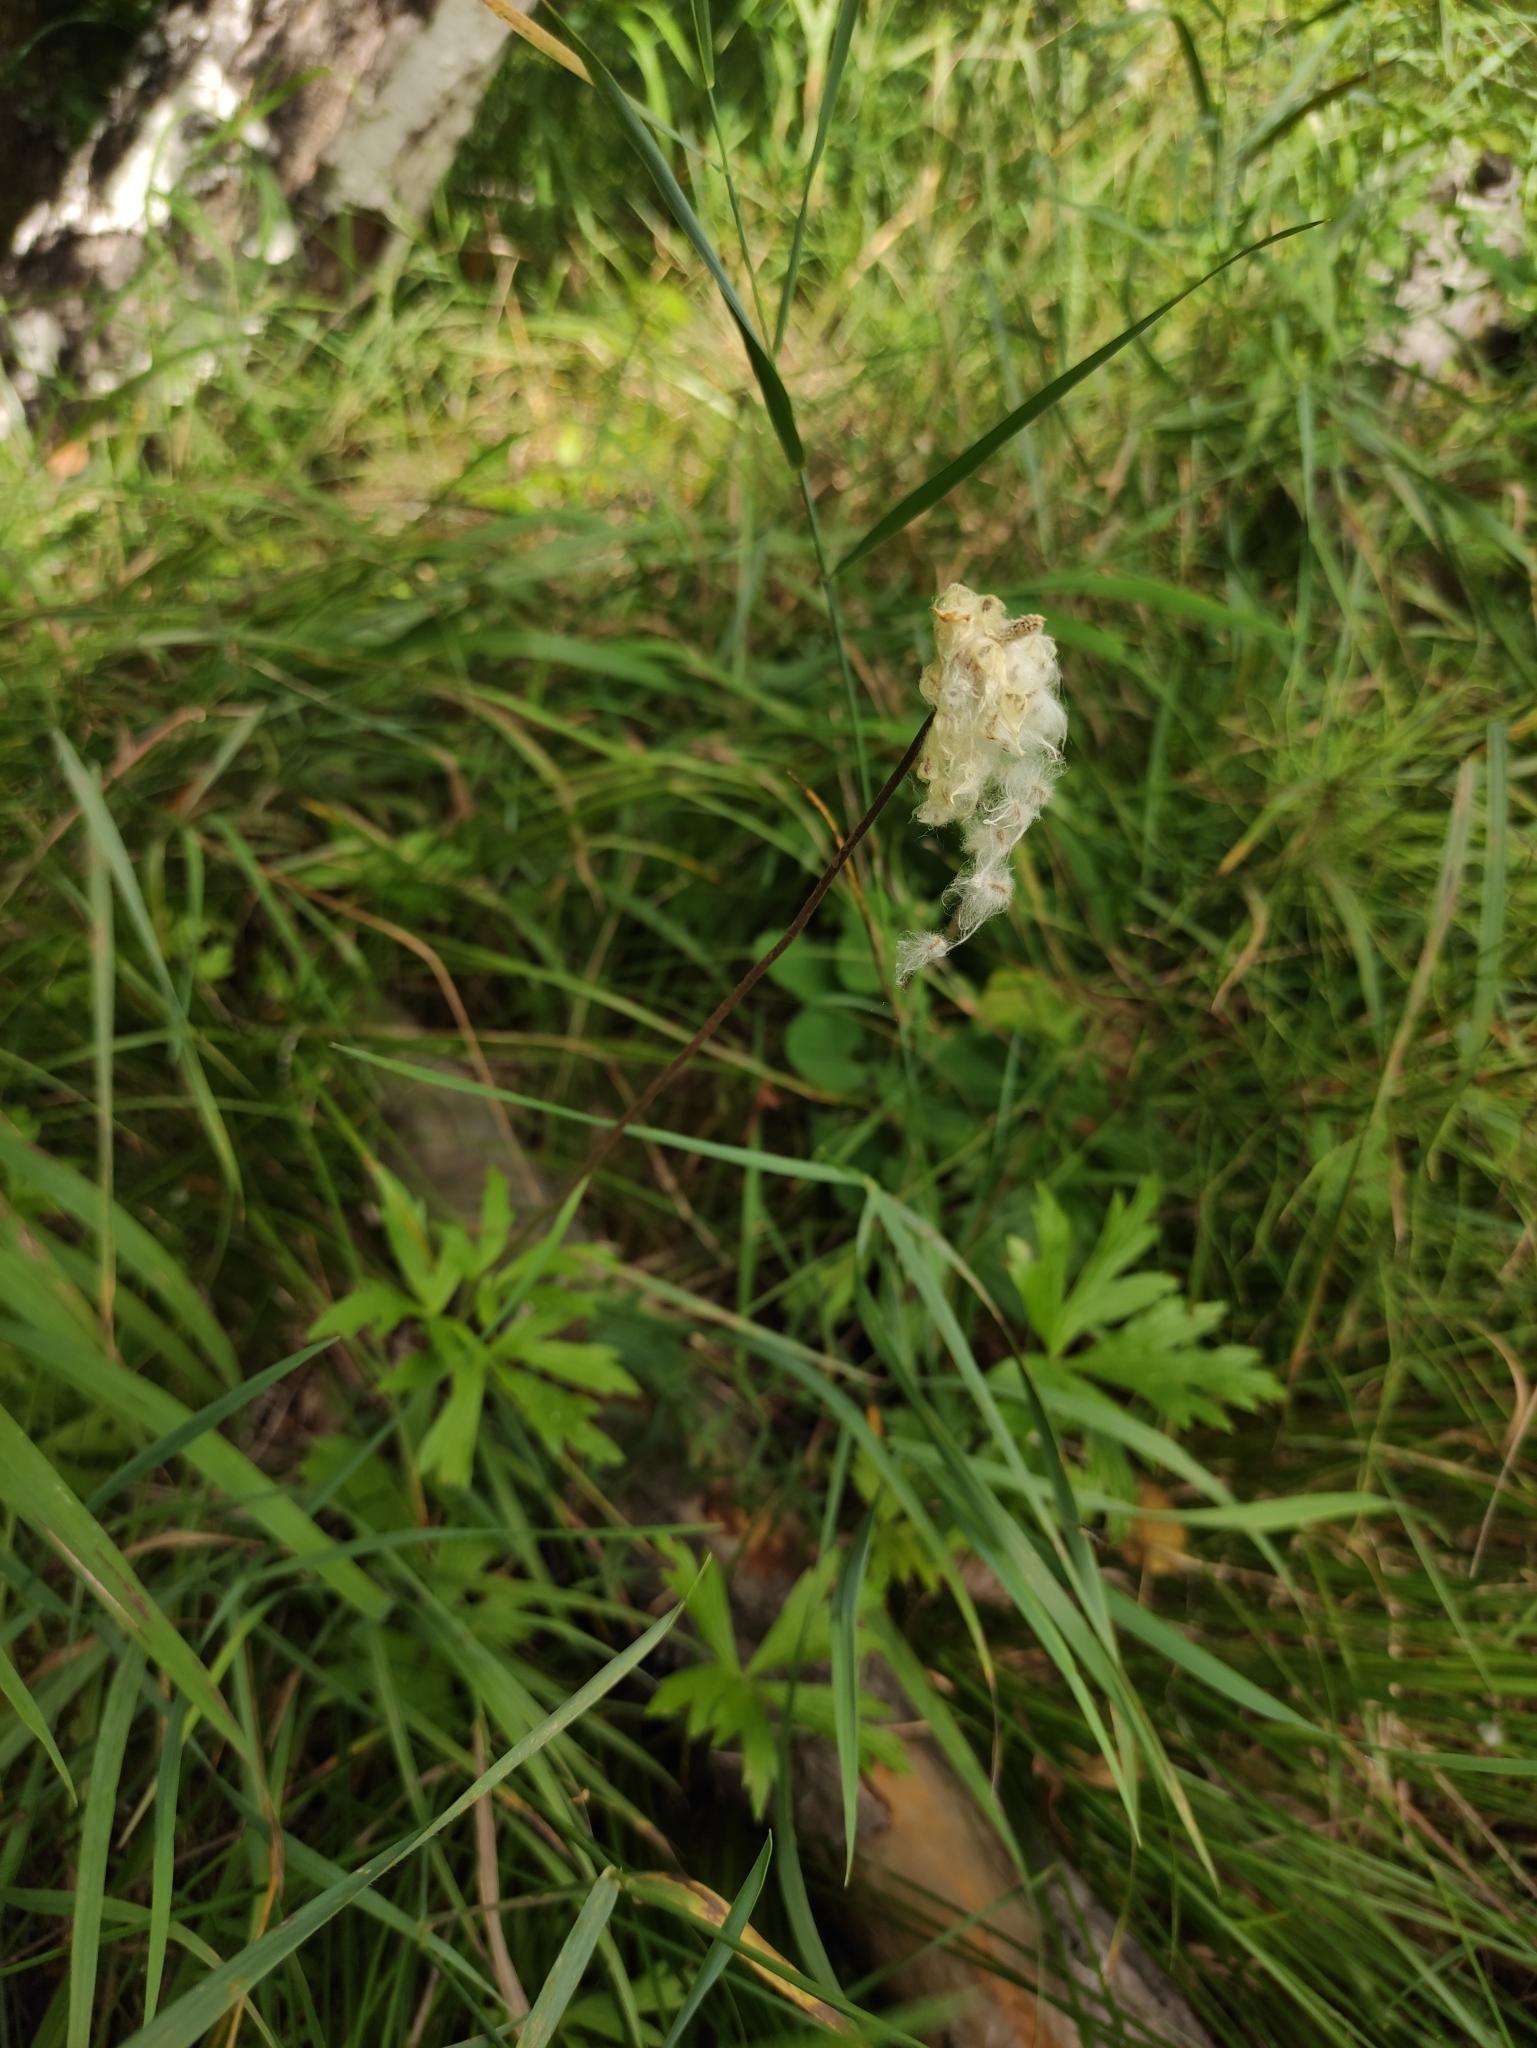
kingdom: Plantae
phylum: Tracheophyta
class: Magnoliopsida
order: Ranunculales
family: Ranunculaceae
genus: Anemone
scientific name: Anemone sylvestris
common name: Snowdrop anemone
